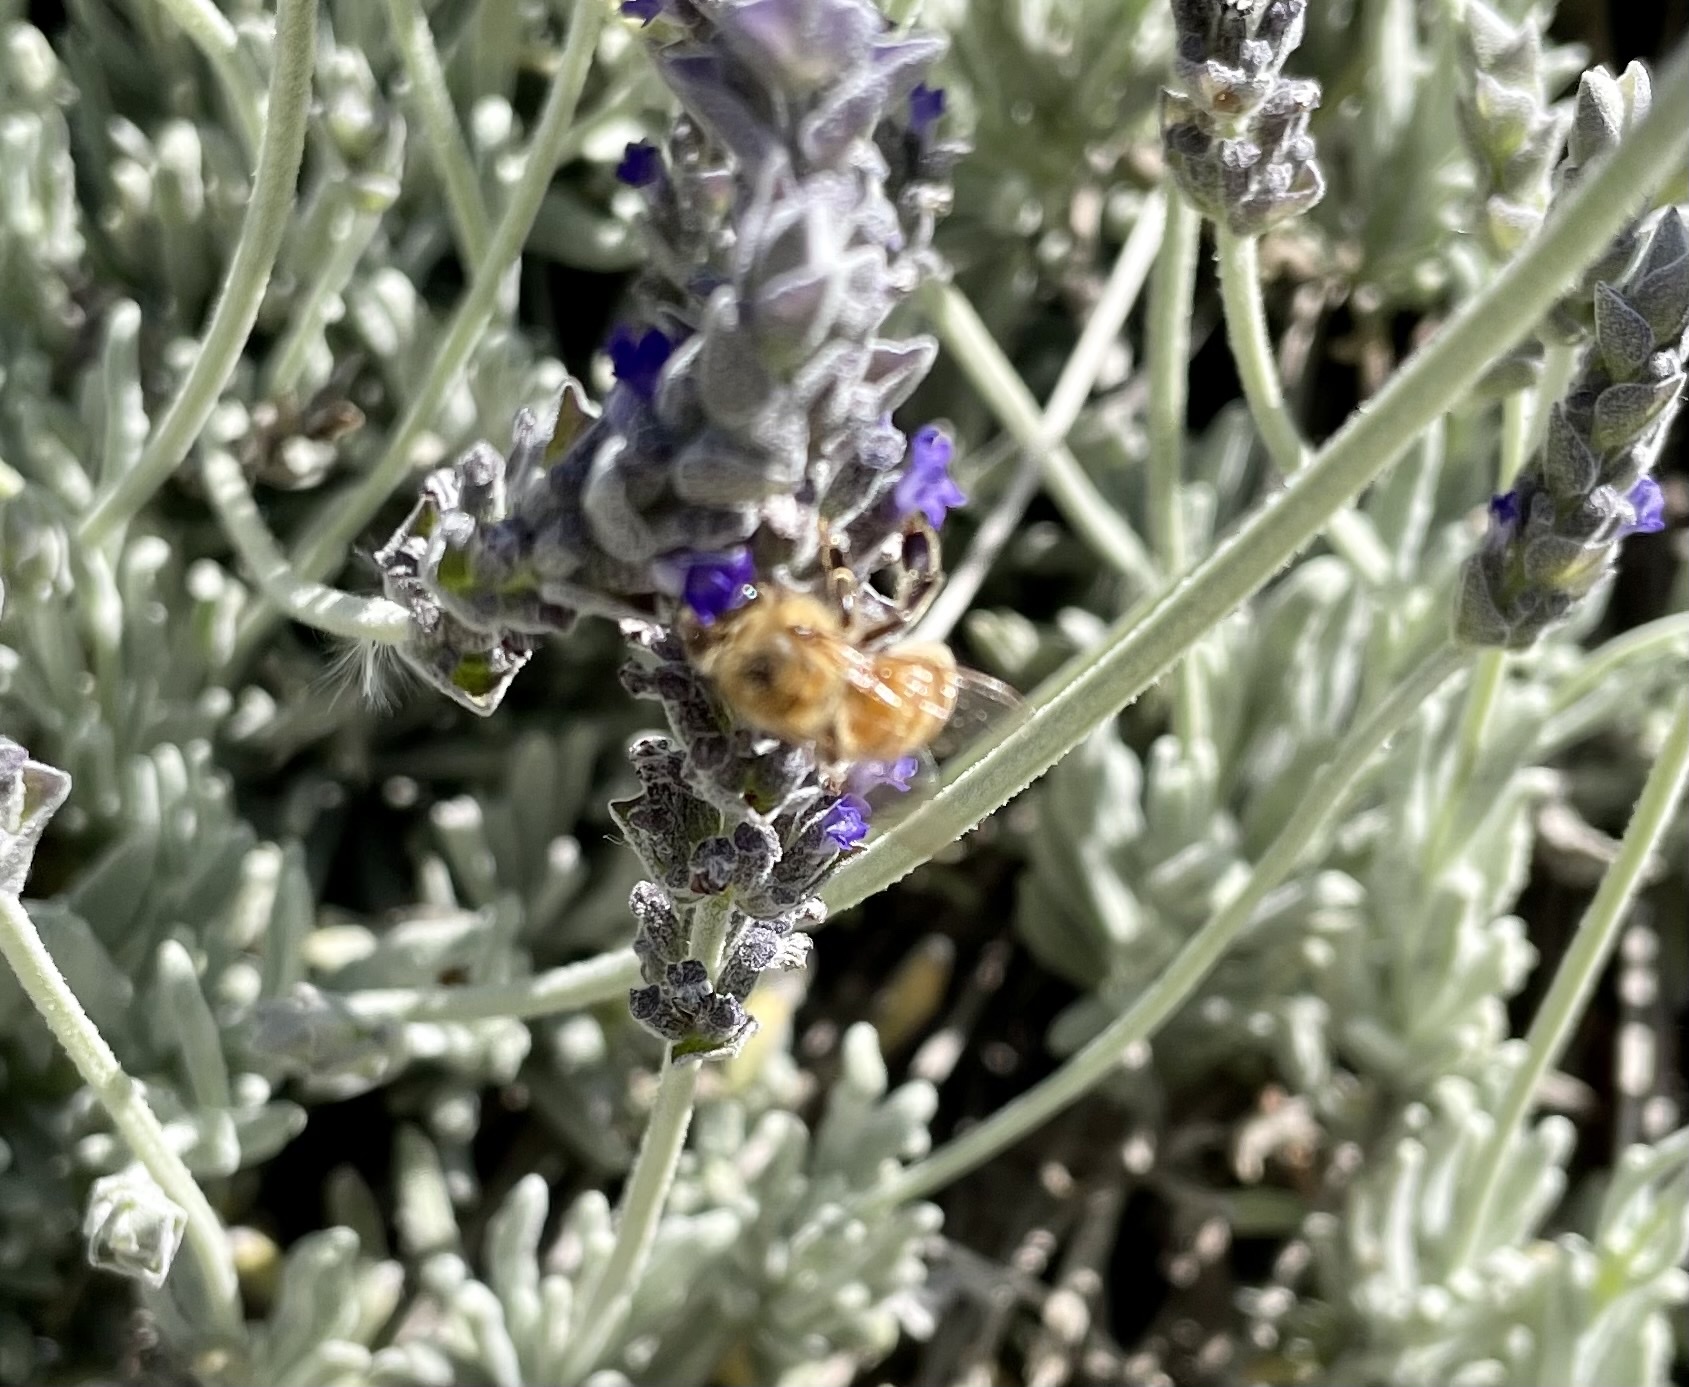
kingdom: Animalia
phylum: Arthropoda
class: Insecta
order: Hymenoptera
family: Apidae
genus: Apis
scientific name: Apis mellifera
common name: Honey bee
